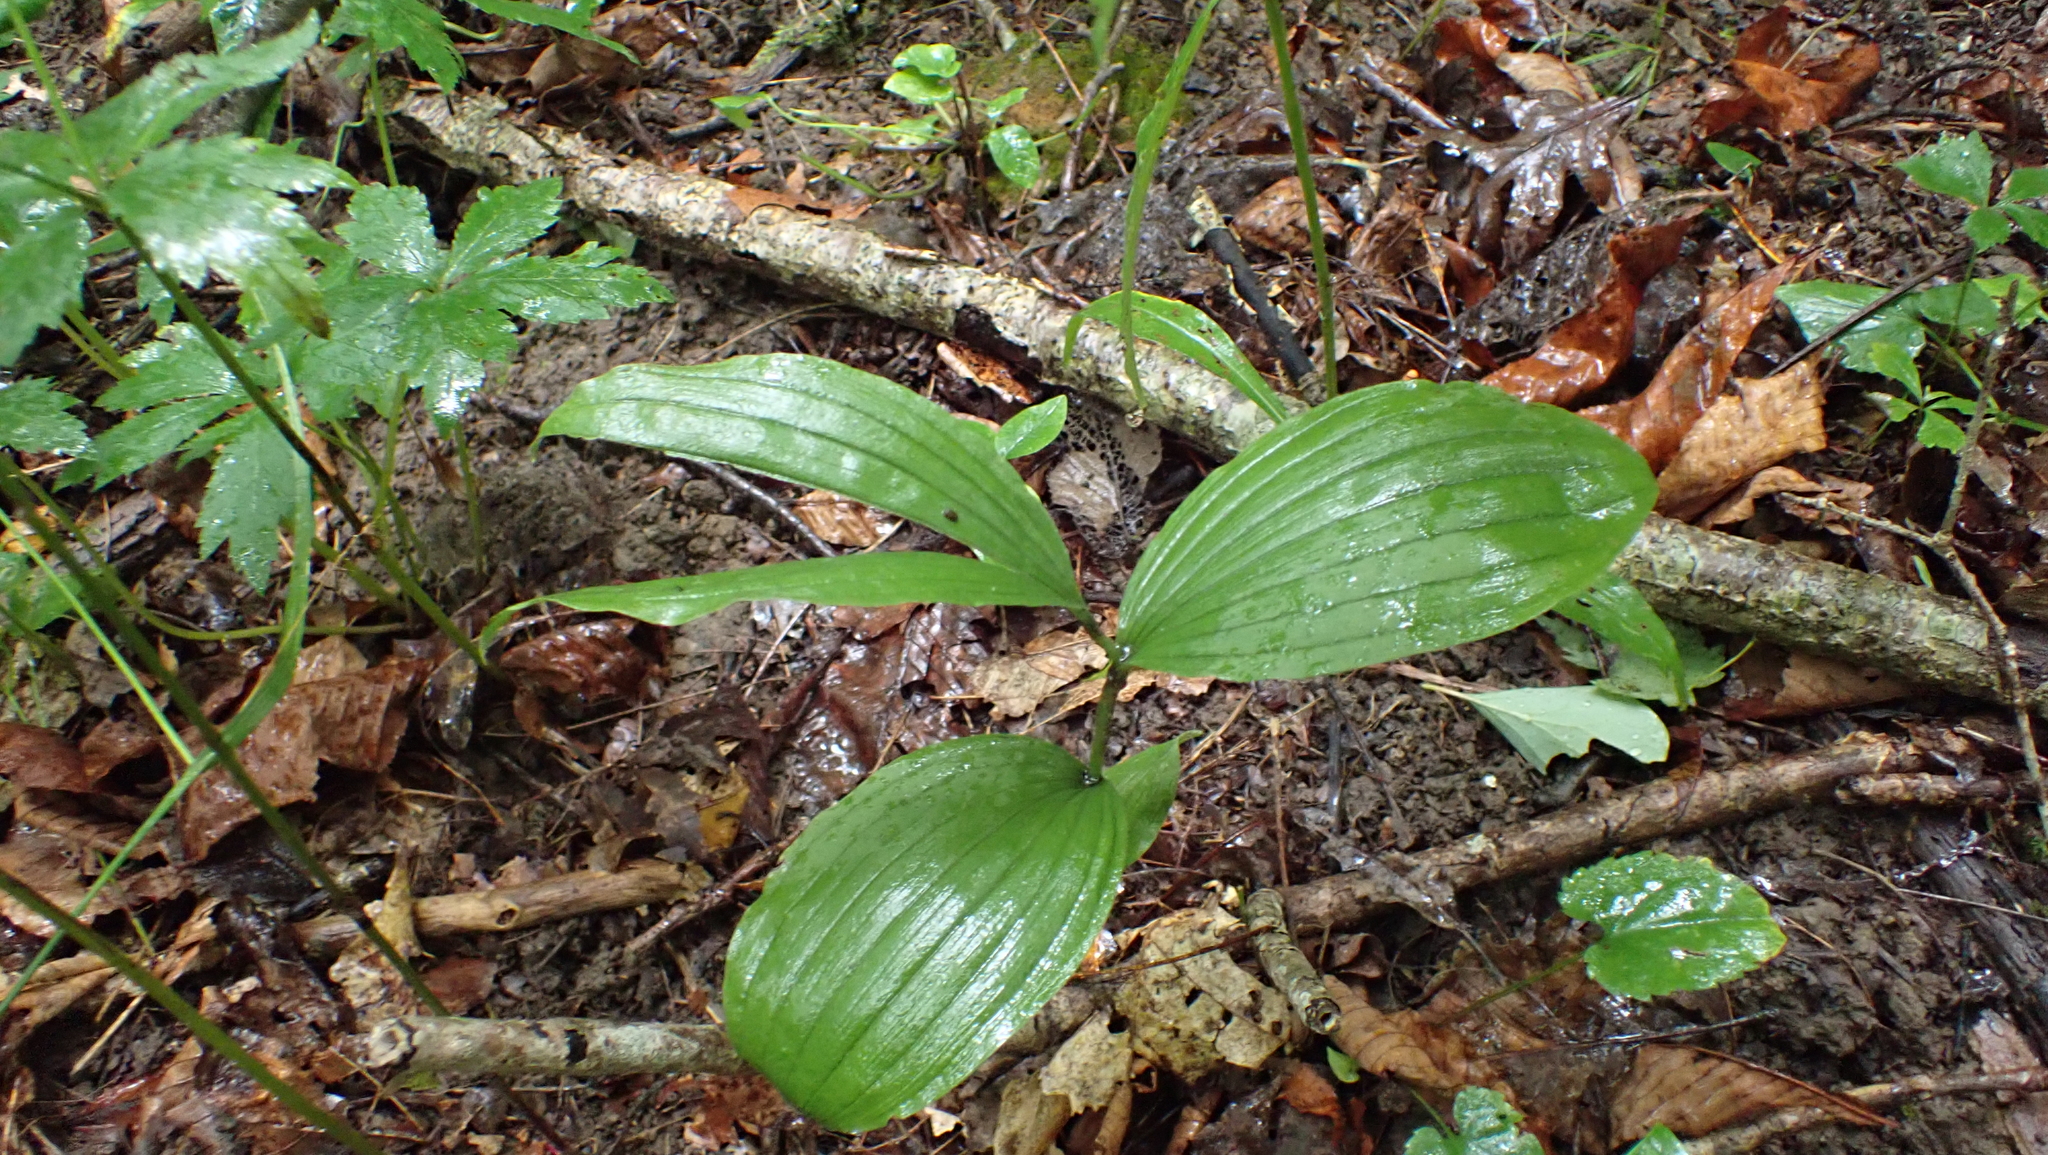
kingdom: Plantae
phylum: Tracheophyta
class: Liliopsida
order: Asparagales
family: Orchidaceae
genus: Cypripedium
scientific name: Cypripedium parviflorum
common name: American yellow lady's-slipper
